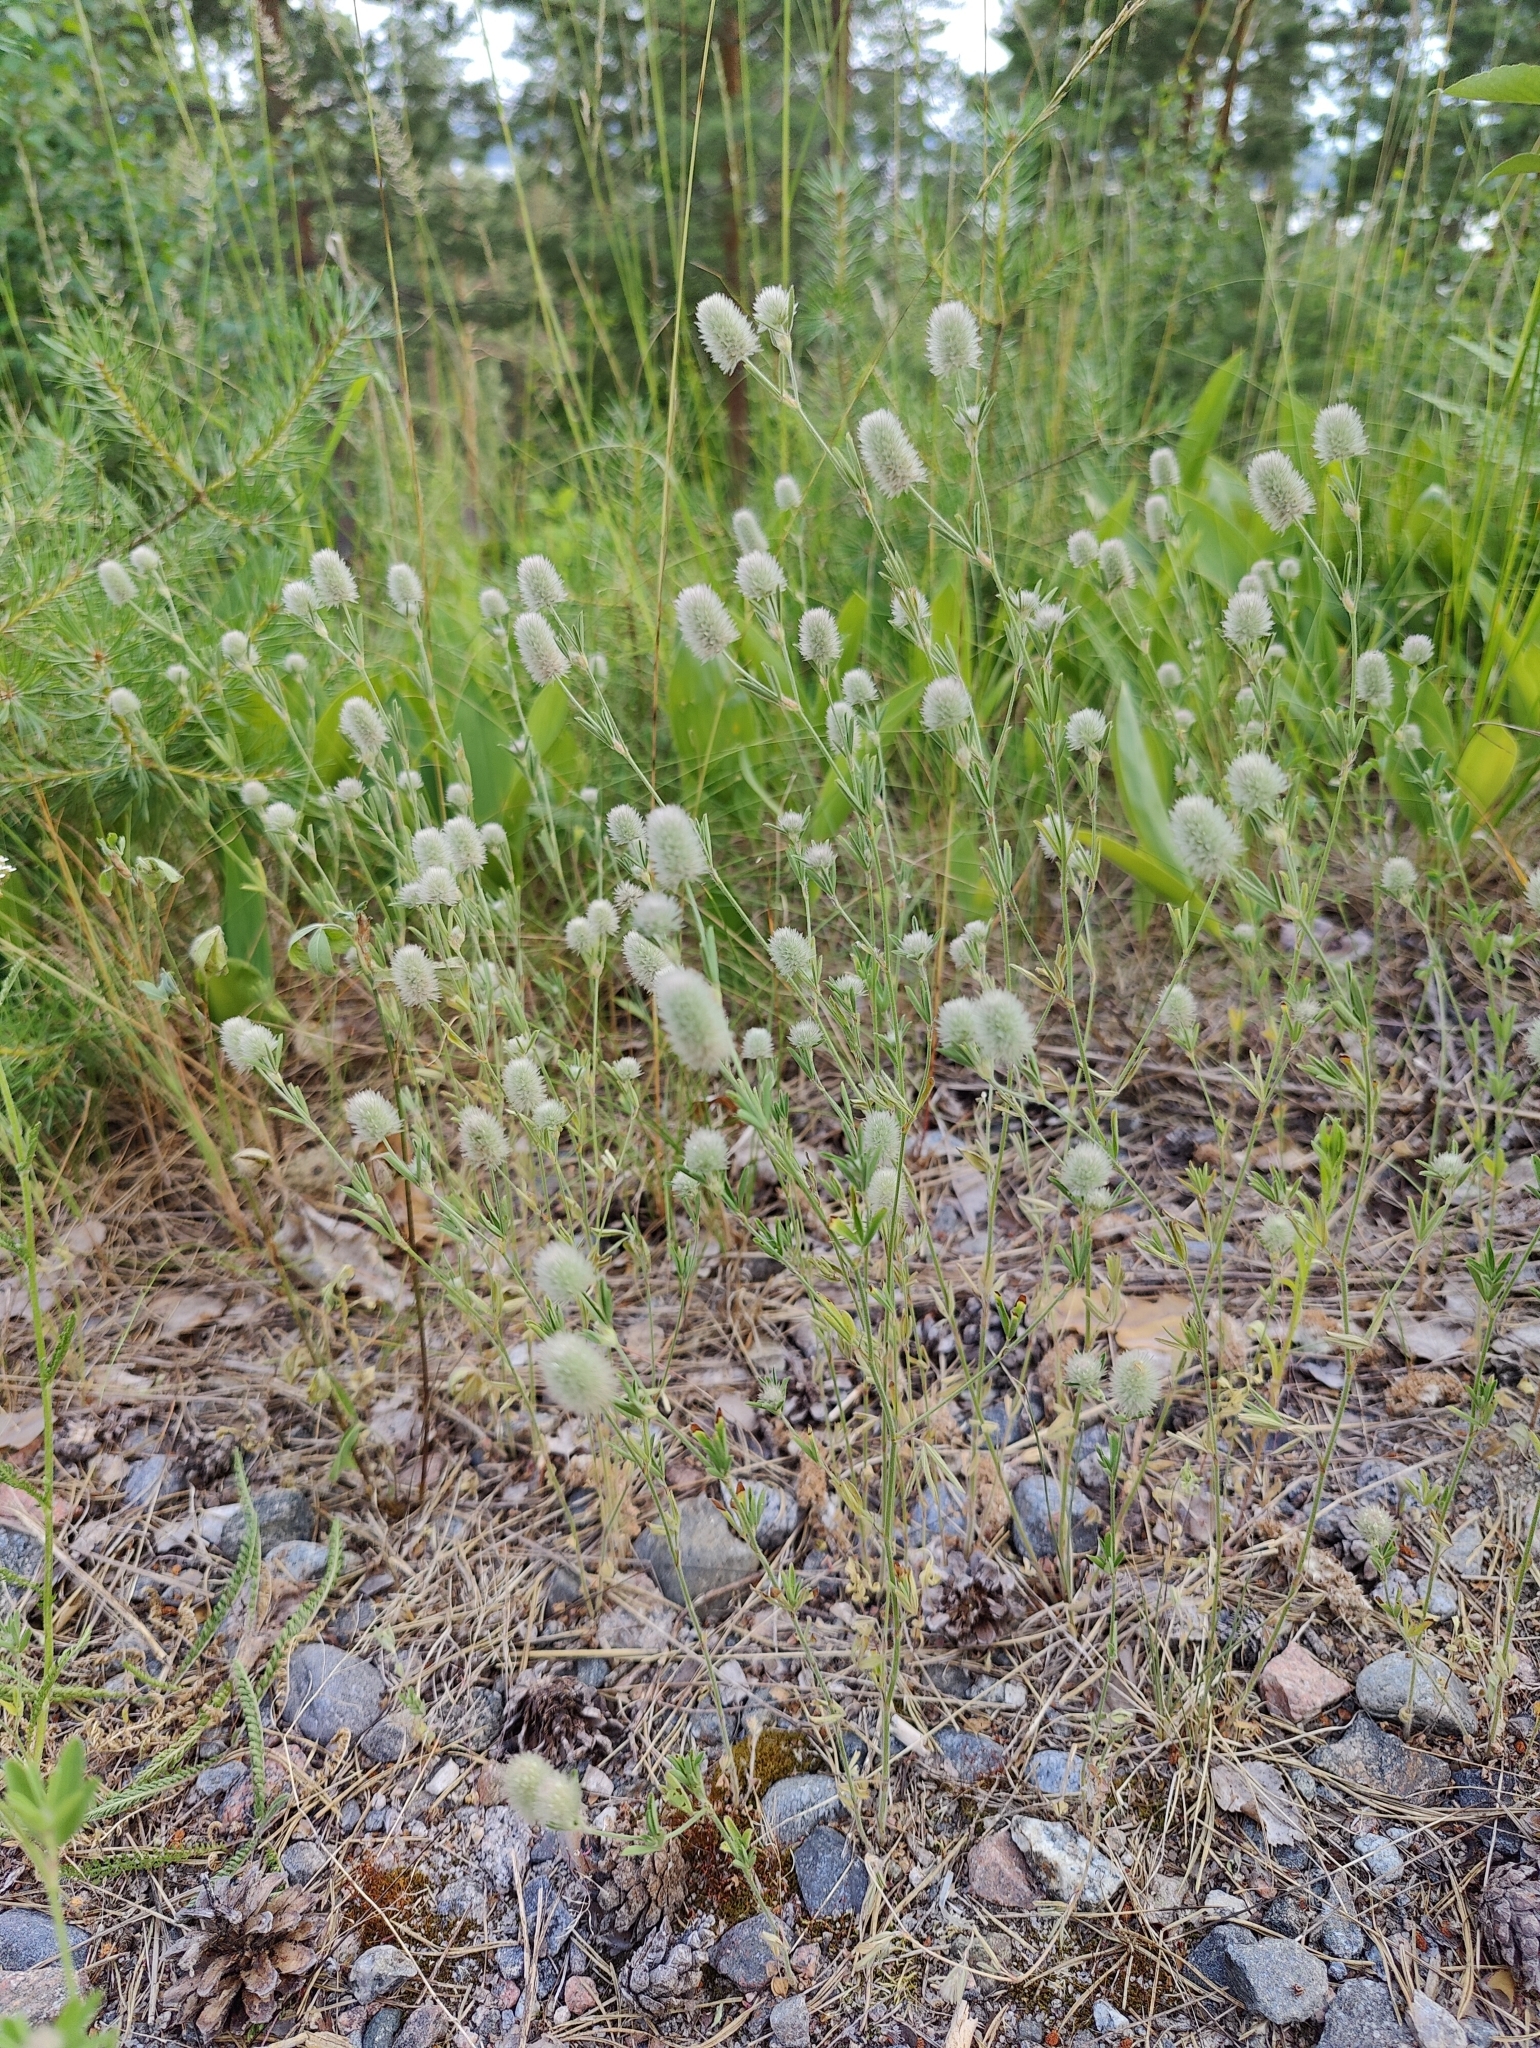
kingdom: Plantae
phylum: Tracheophyta
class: Magnoliopsida
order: Fabales
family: Fabaceae
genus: Trifolium
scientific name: Trifolium arvense
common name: Hare's-foot clover
